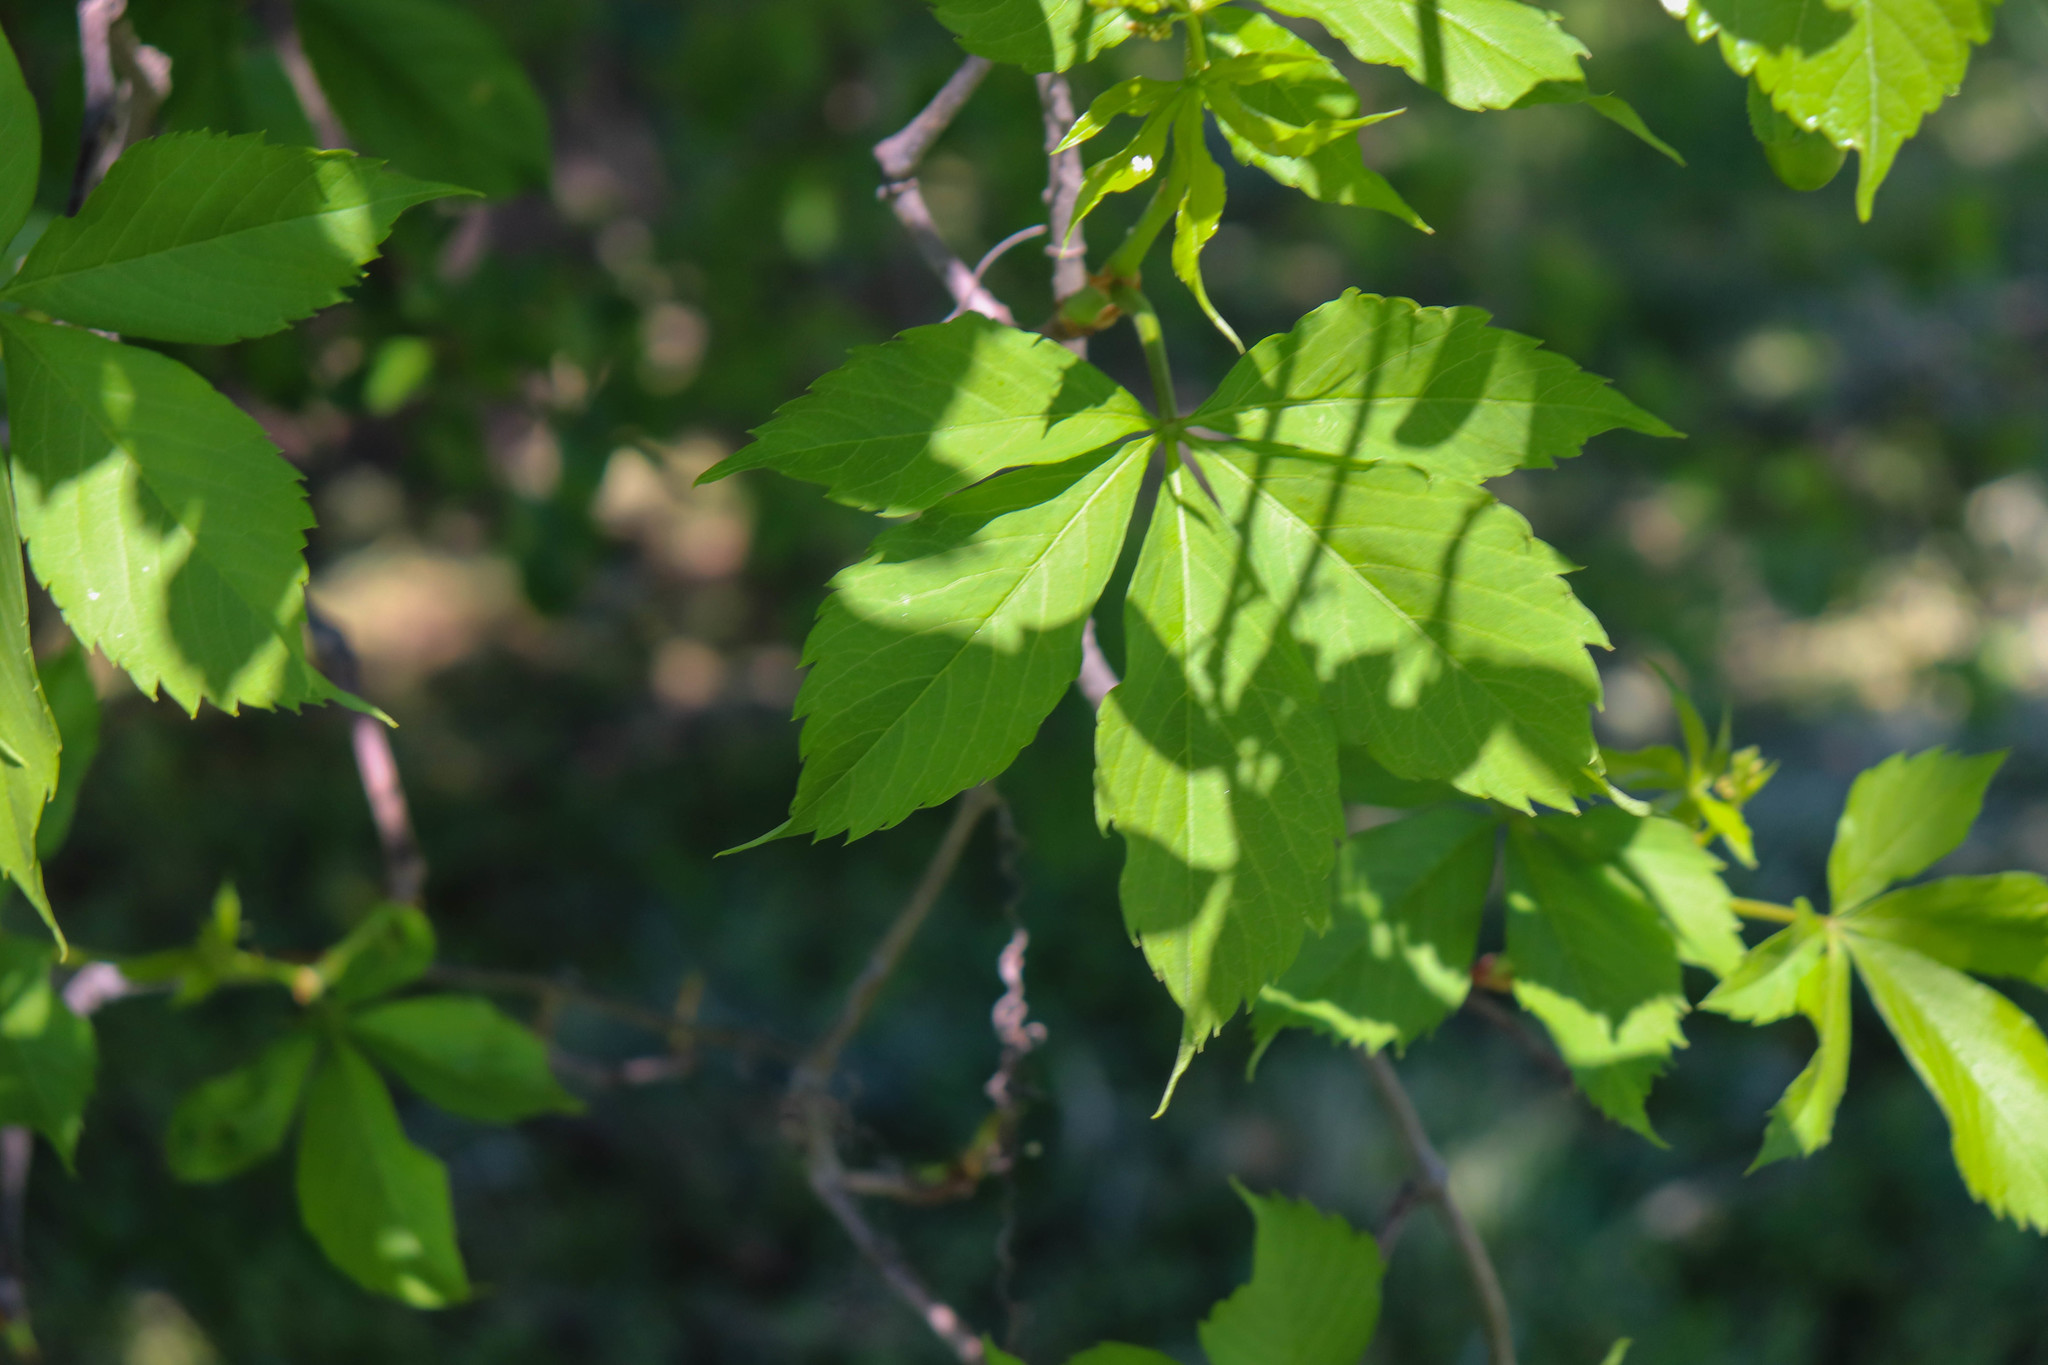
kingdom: Plantae
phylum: Tracheophyta
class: Magnoliopsida
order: Vitales
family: Vitaceae
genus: Parthenocissus
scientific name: Parthenocissus quinquefolia
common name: Virginia-creeper
